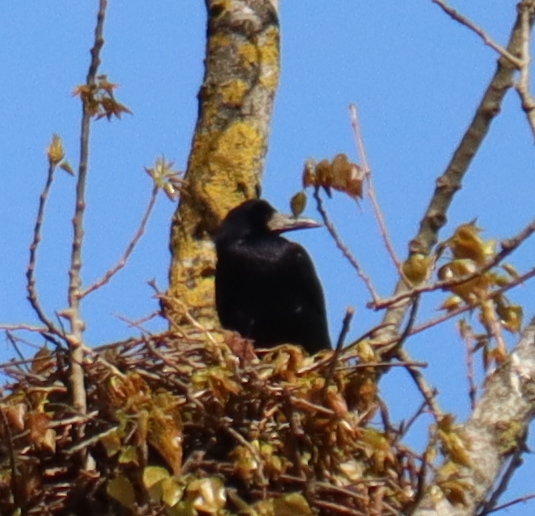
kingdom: Animalia
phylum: Chordata
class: Aves
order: Passeriformes
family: Corvidae
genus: Corvus
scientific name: Corvus frugilegus
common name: Rook
